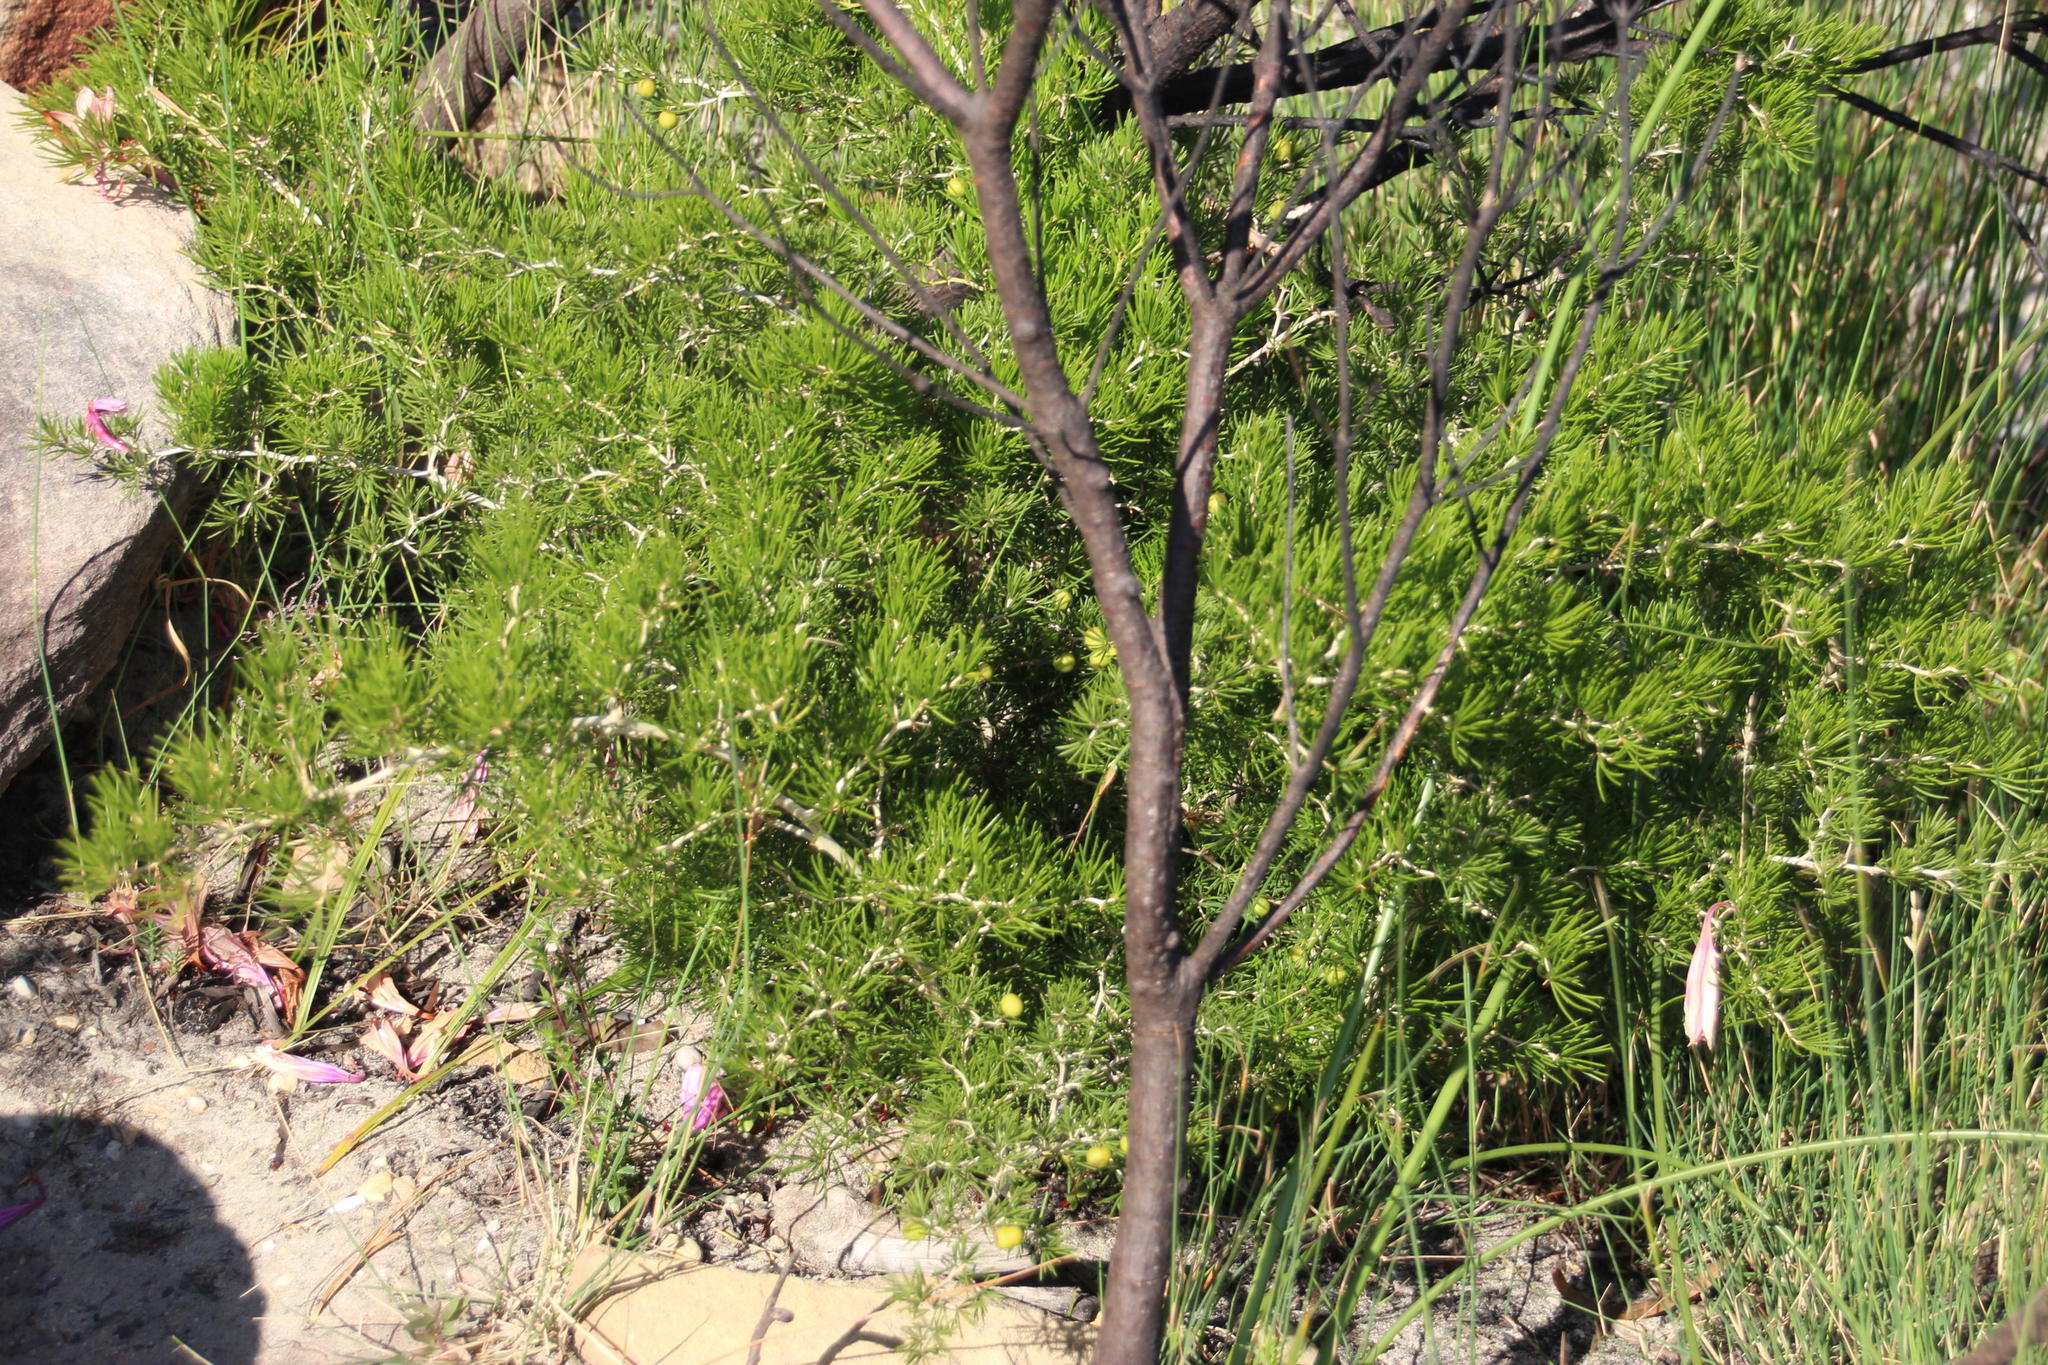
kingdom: Plantae
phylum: Tracheophyta
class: Liliopsida
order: Asparagales
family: Asparagaceae
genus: Asparagus
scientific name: Asparagus lignosus
